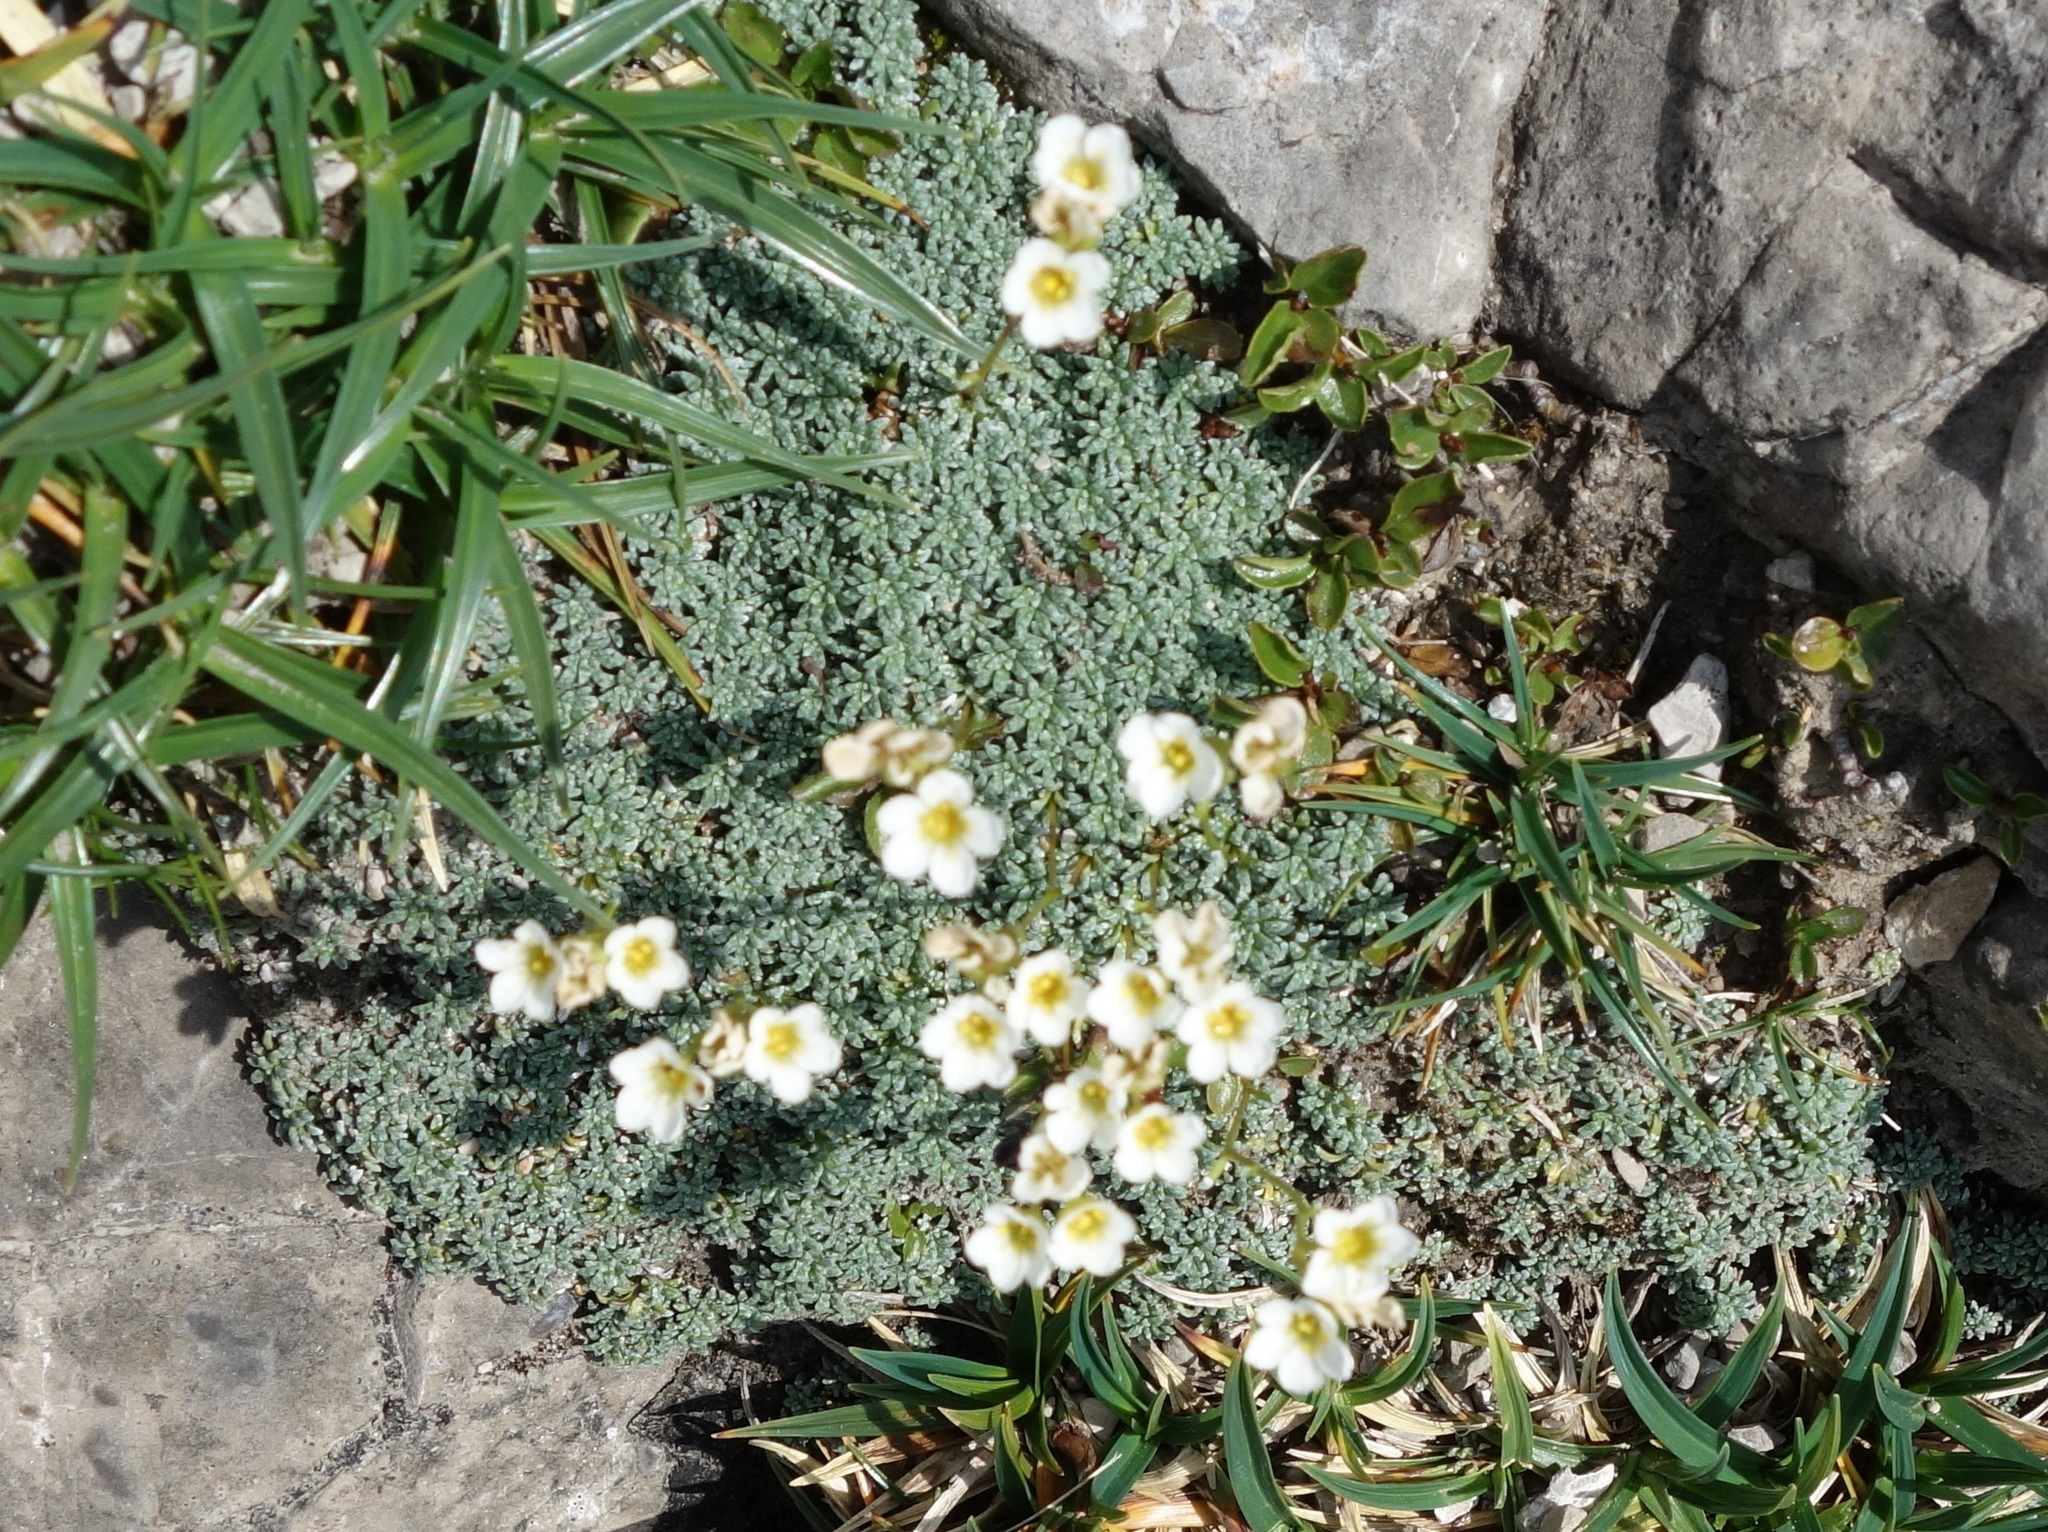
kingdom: Plantae
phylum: Tracheophyta
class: Magnoliopsida
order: Saxifragales
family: Saxifragaceae
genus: Saxifraga
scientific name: Saxifraga caesia
